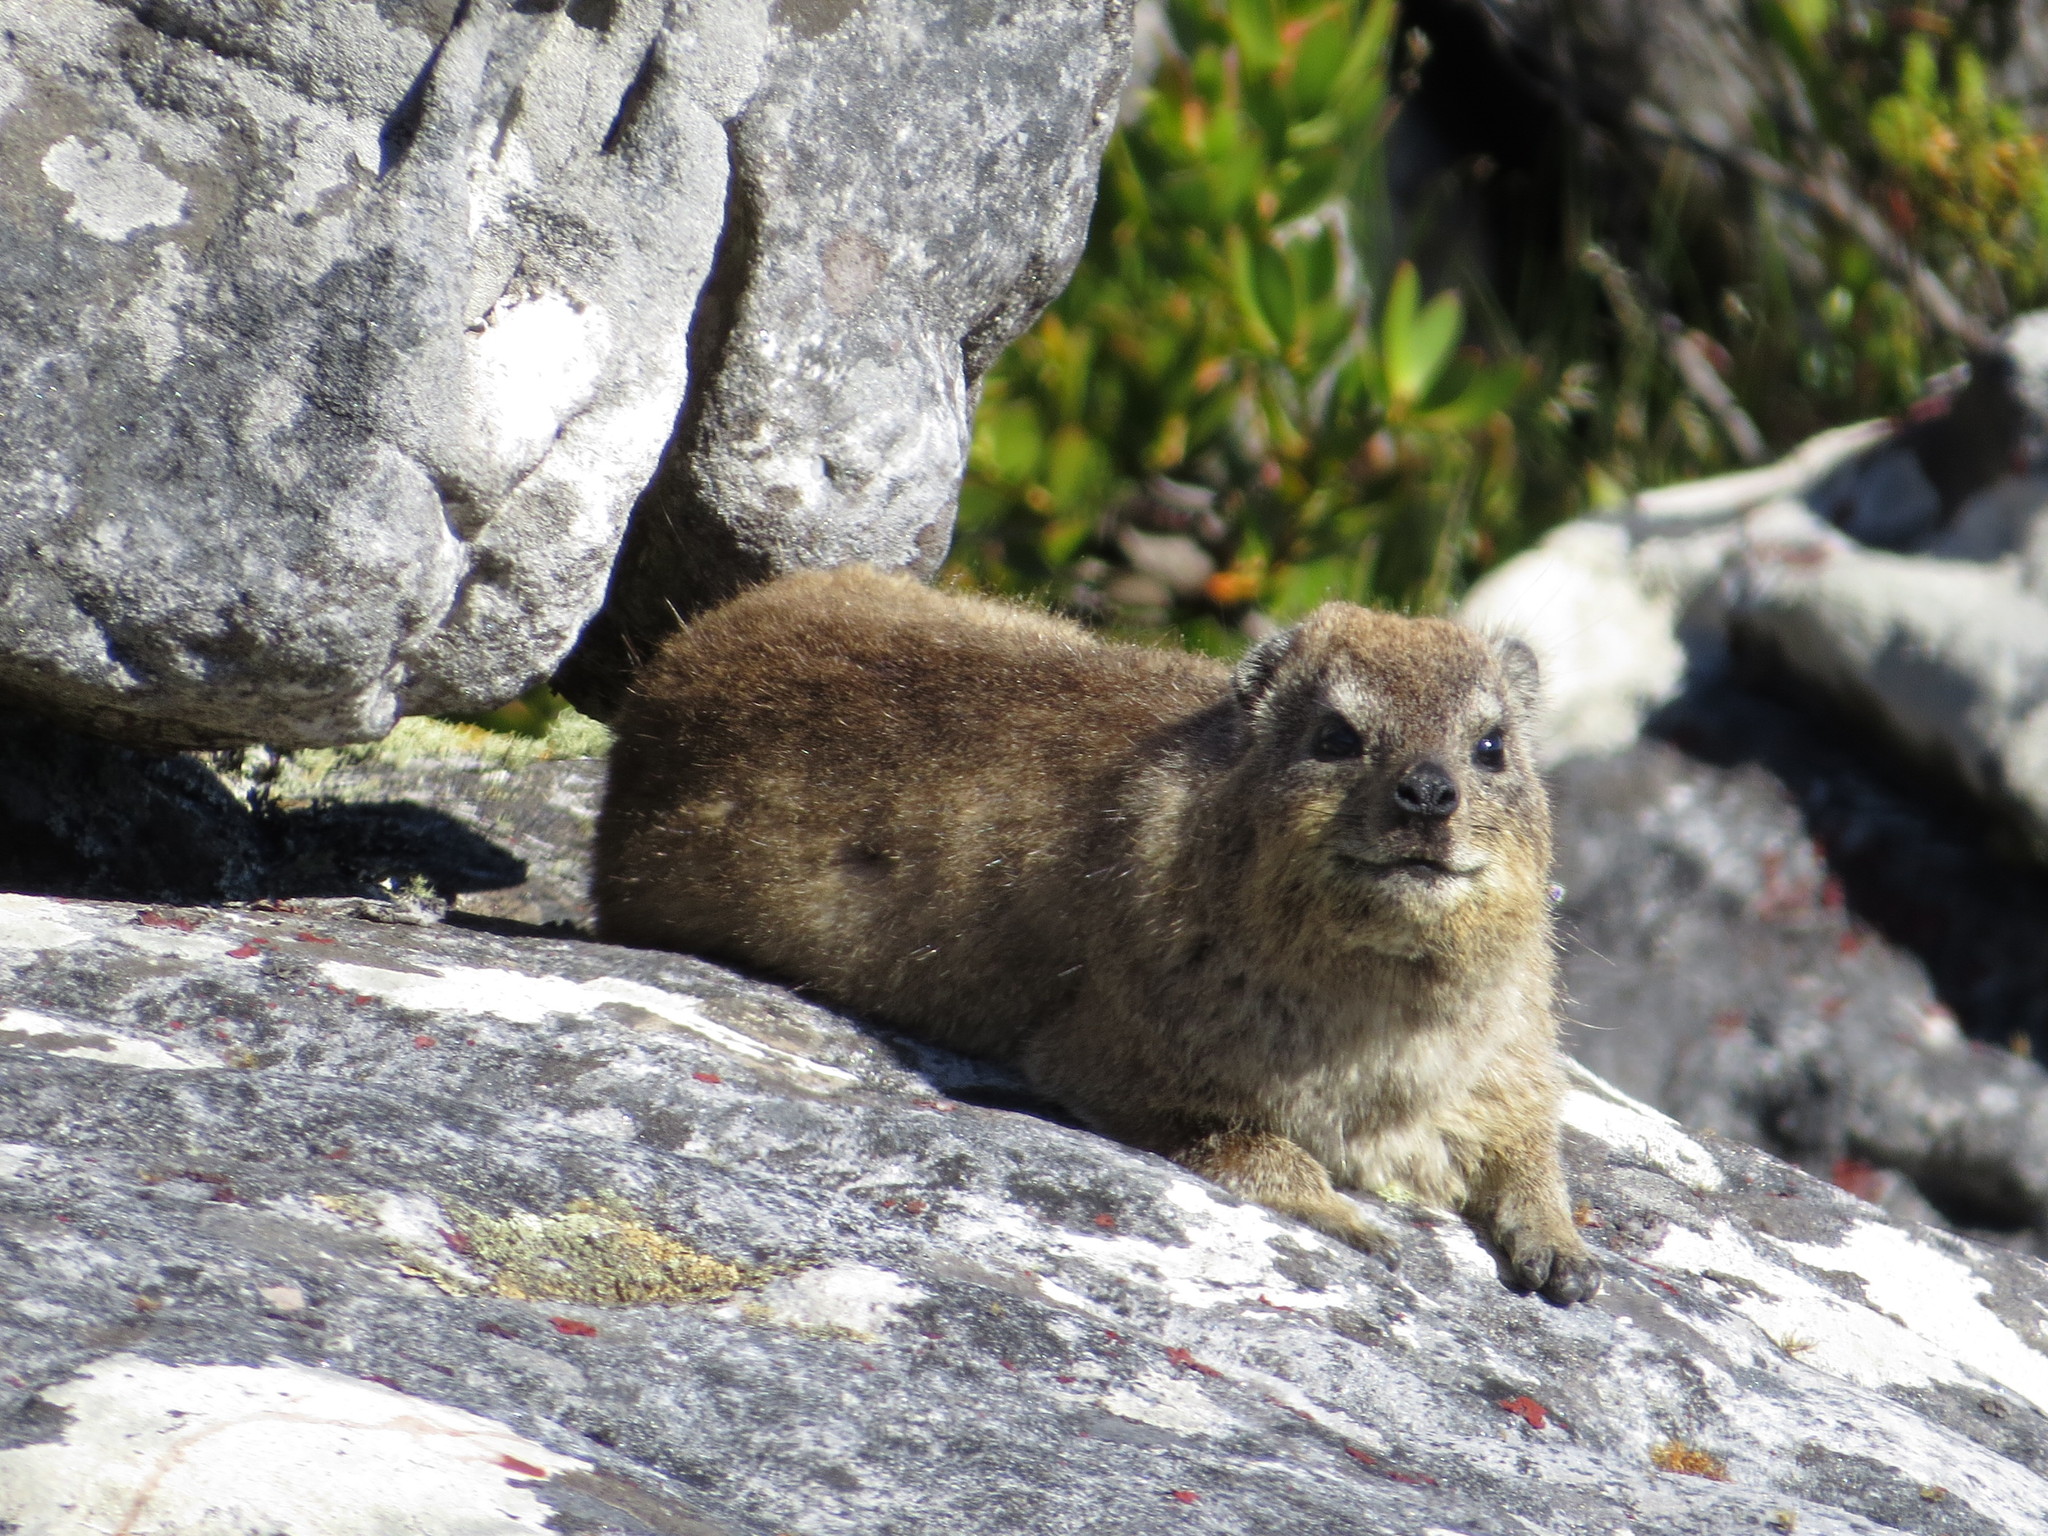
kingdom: Animalia
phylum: Chordata
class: Mammalia
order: Hyracoidea
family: Procaviidae
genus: Procavia
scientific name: Procavia capensis
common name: Rock hyrax
